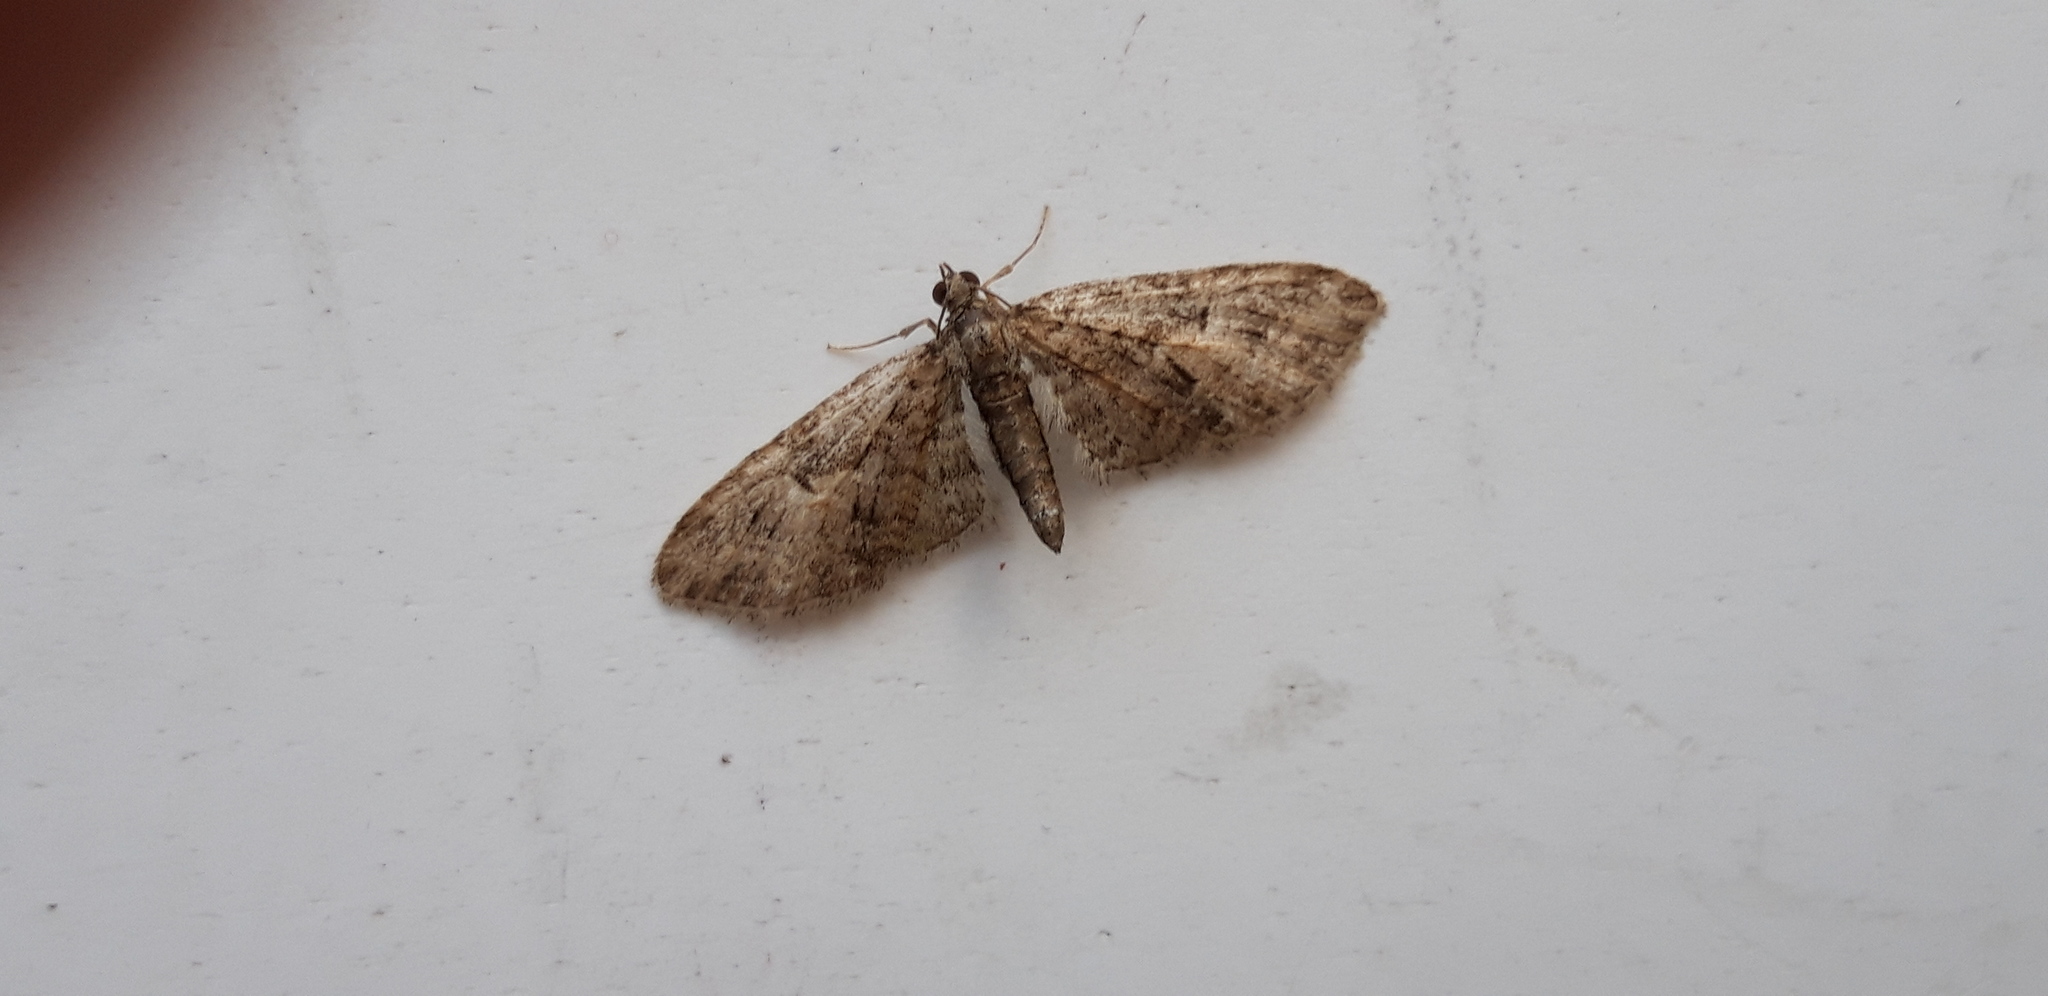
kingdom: Animalia
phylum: Arthropoda
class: Insecta
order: Lepidoptera
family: Geometridae
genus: Eupithecia
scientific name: Eupithecia abbreviata
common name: Brindled pug
